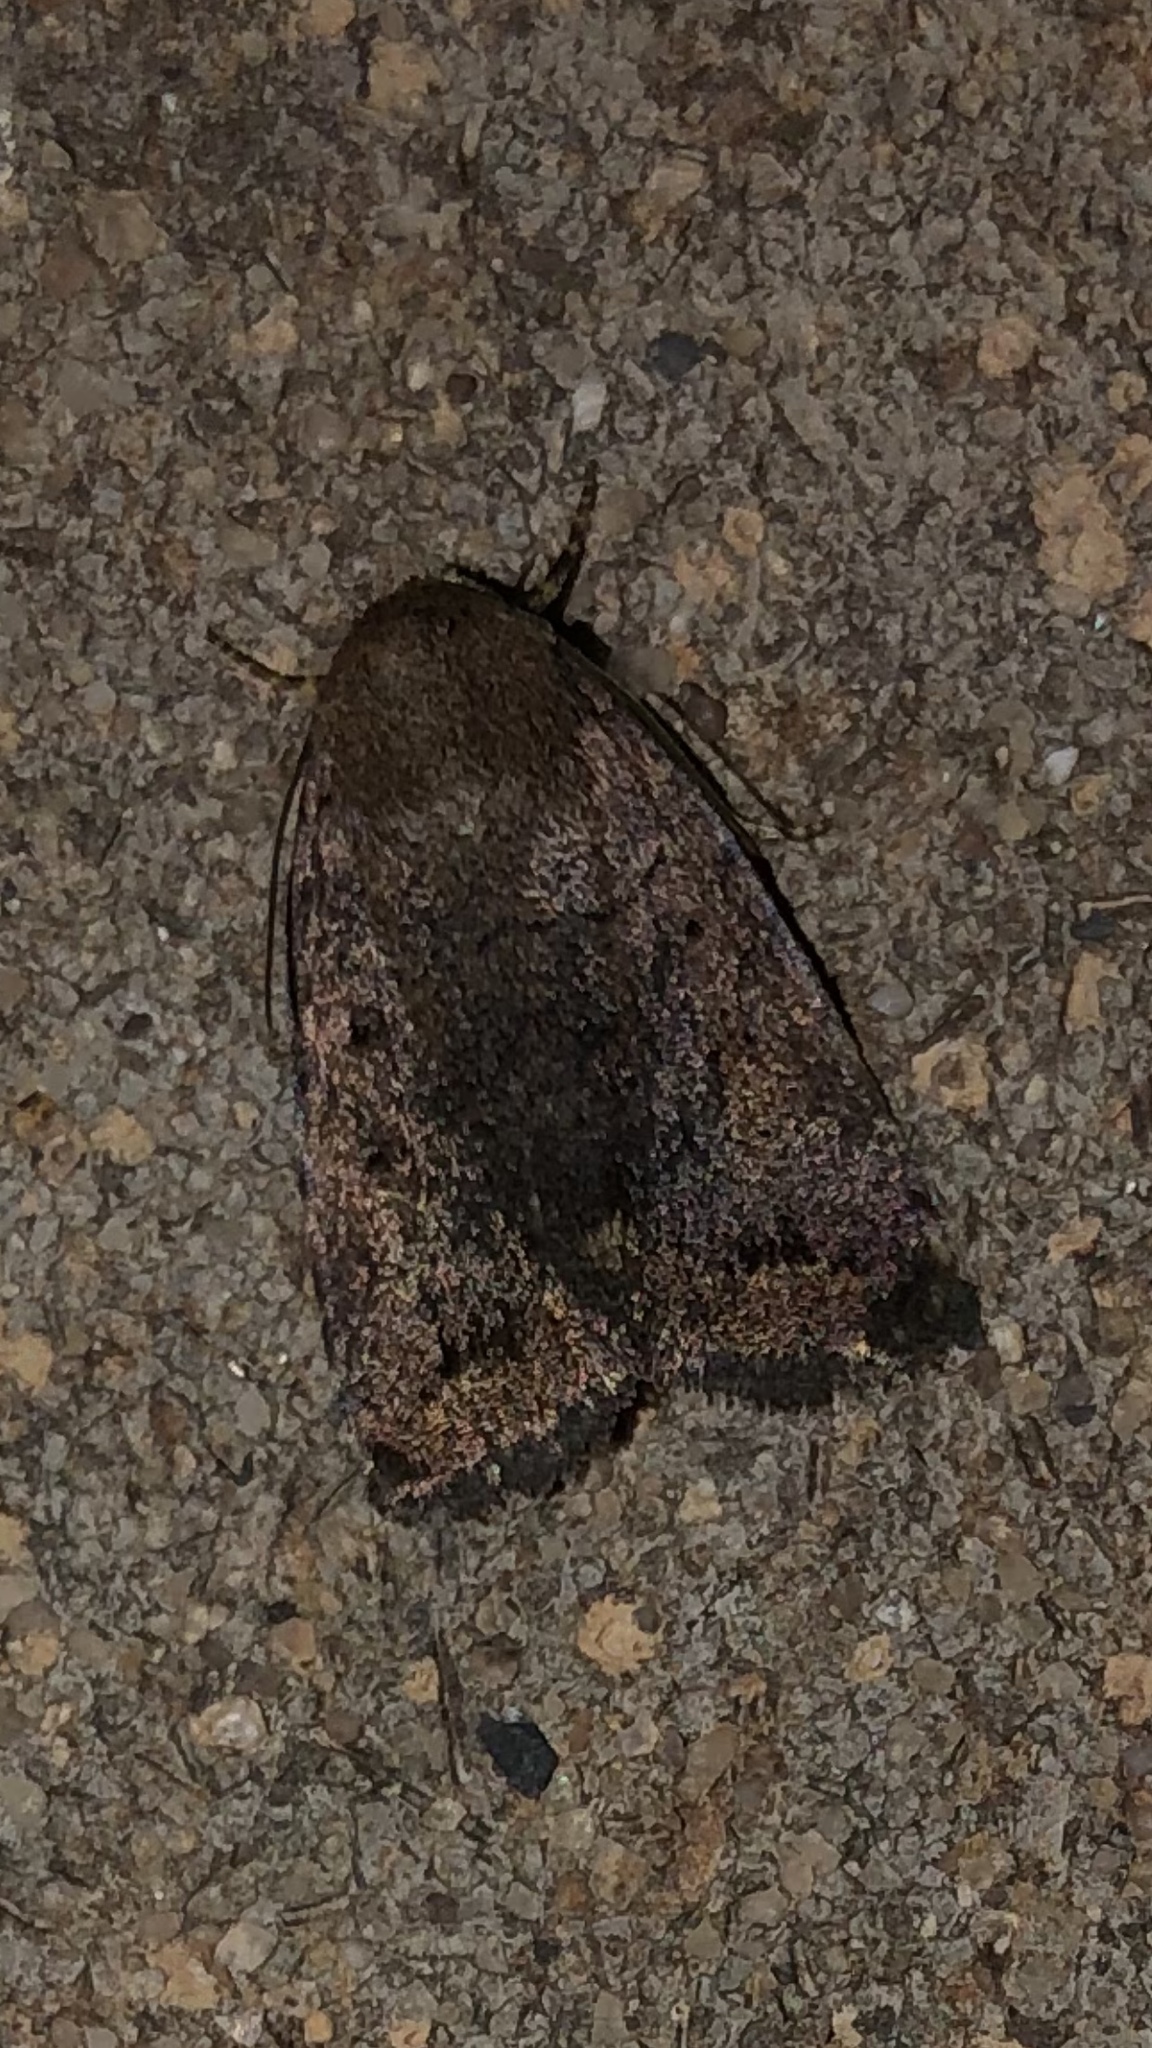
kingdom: Animalia
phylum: Arthropoda
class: Insecta
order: Lepidoptera
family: Noctuidae
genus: Athetis
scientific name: Athetis tarda
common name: Slowpoke moth
